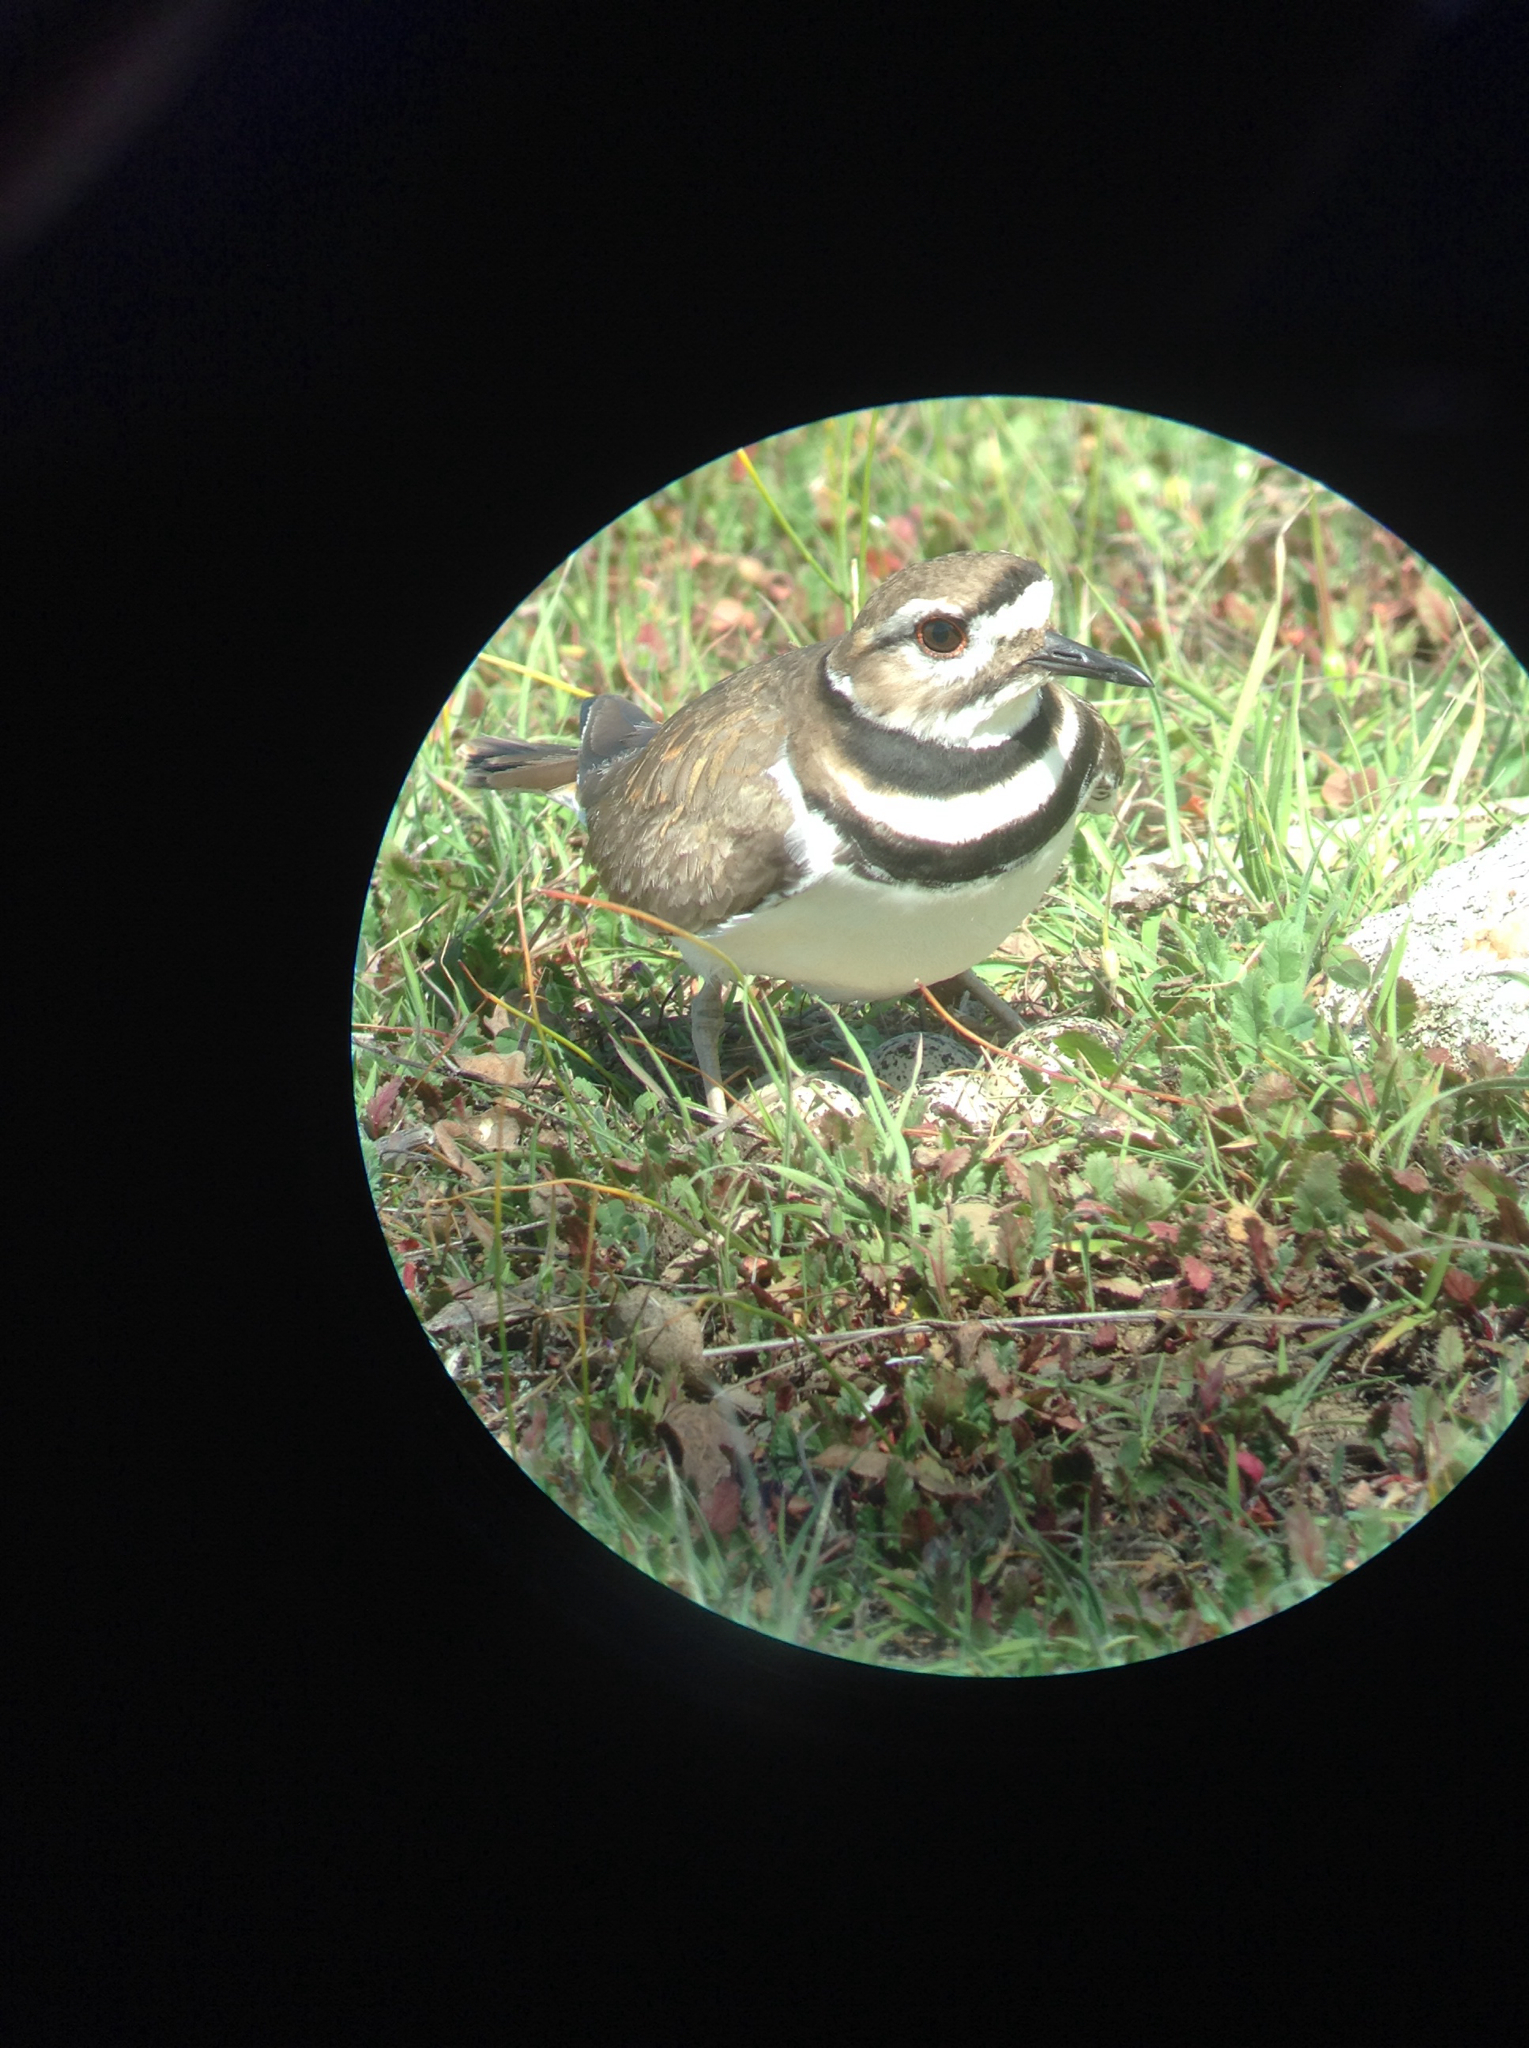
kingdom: Animalia
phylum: Chordata
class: Aves
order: Charadriiformes
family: Charadriidae
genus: Charadrius
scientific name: Charadrius vociferus
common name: Killdeer
